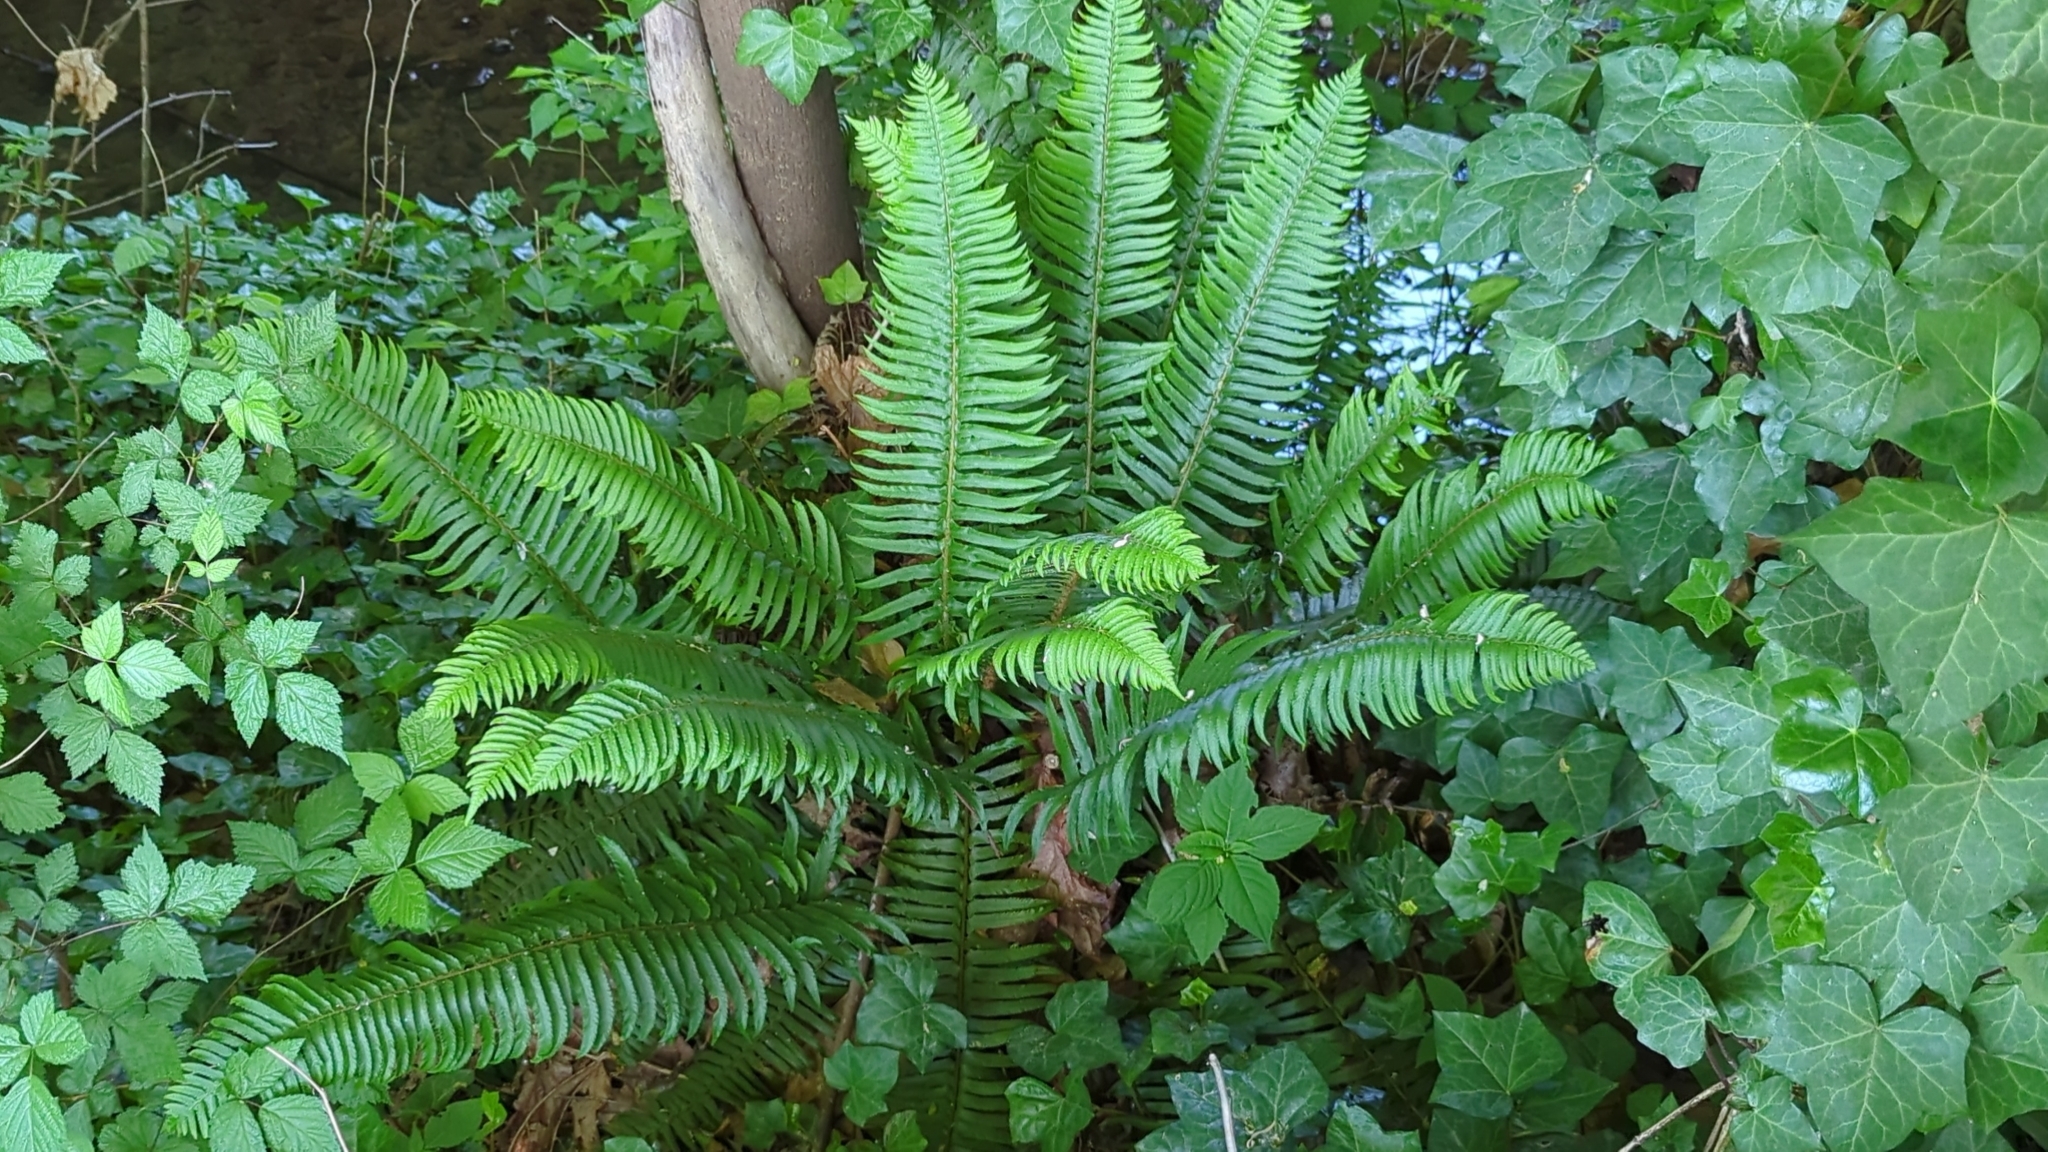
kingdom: Plantae
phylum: Tracheophyta
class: Polypodiopsida
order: Polypodiales
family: Dryopteridaceae
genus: Polystichum
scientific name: Polystichum munitum
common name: Western sword-fern
